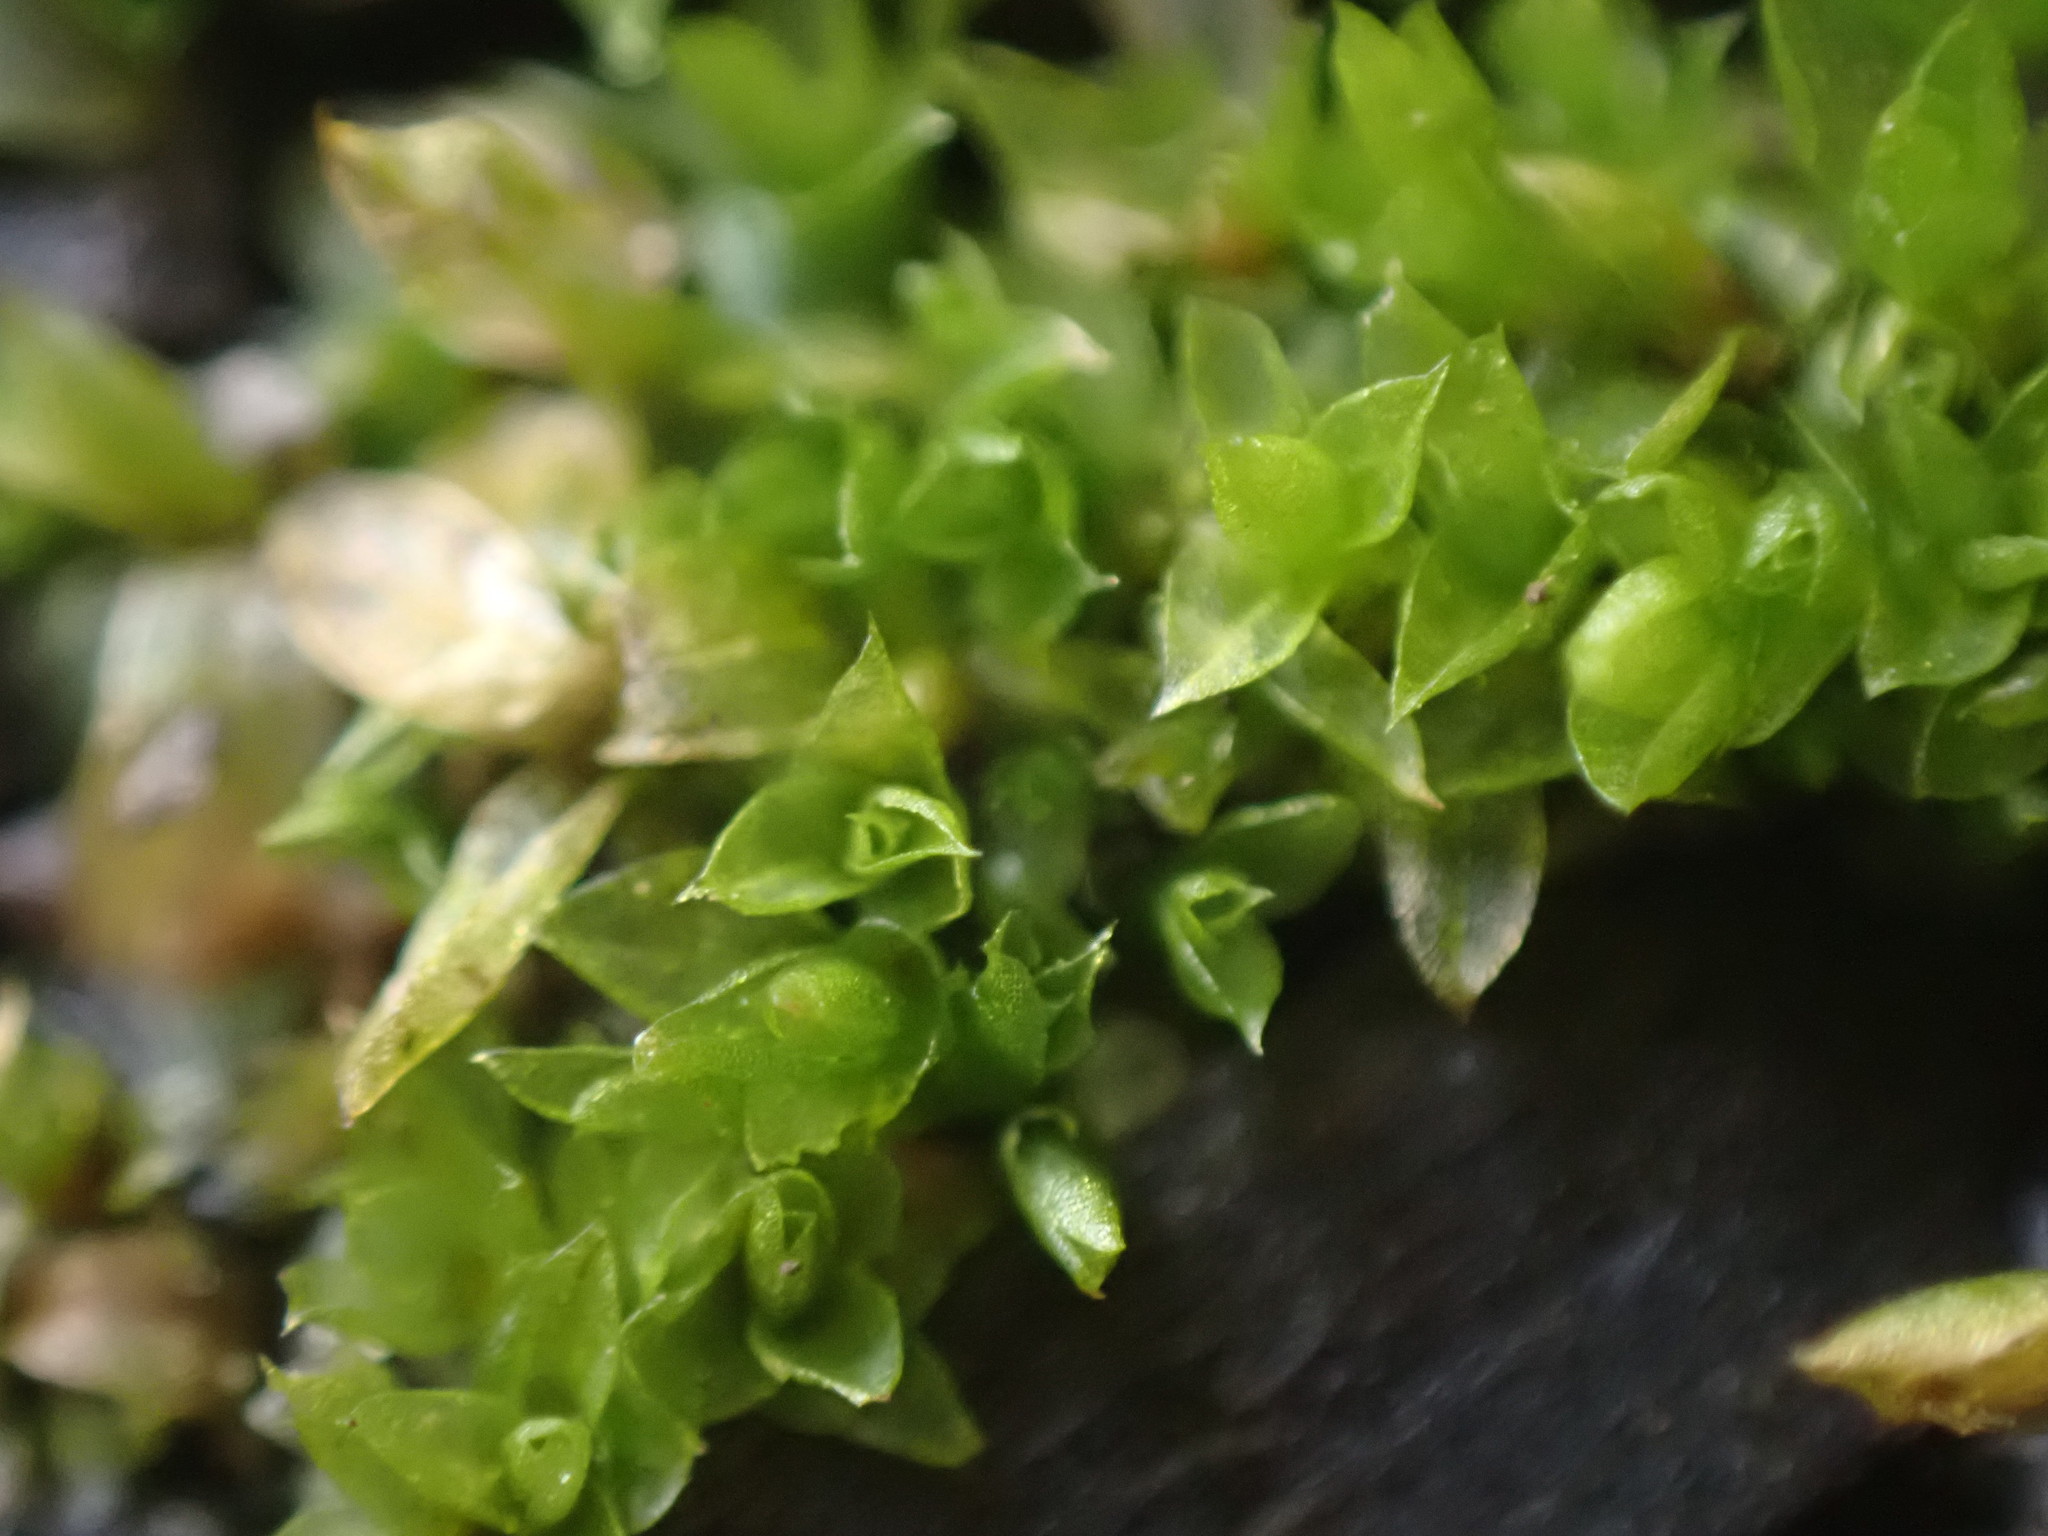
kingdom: Plantae
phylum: Bryophyta
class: Bryopsida
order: Funariales
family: Funariaceae
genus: Funaria
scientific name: Funaria hygrometrica
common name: Common cord moss
